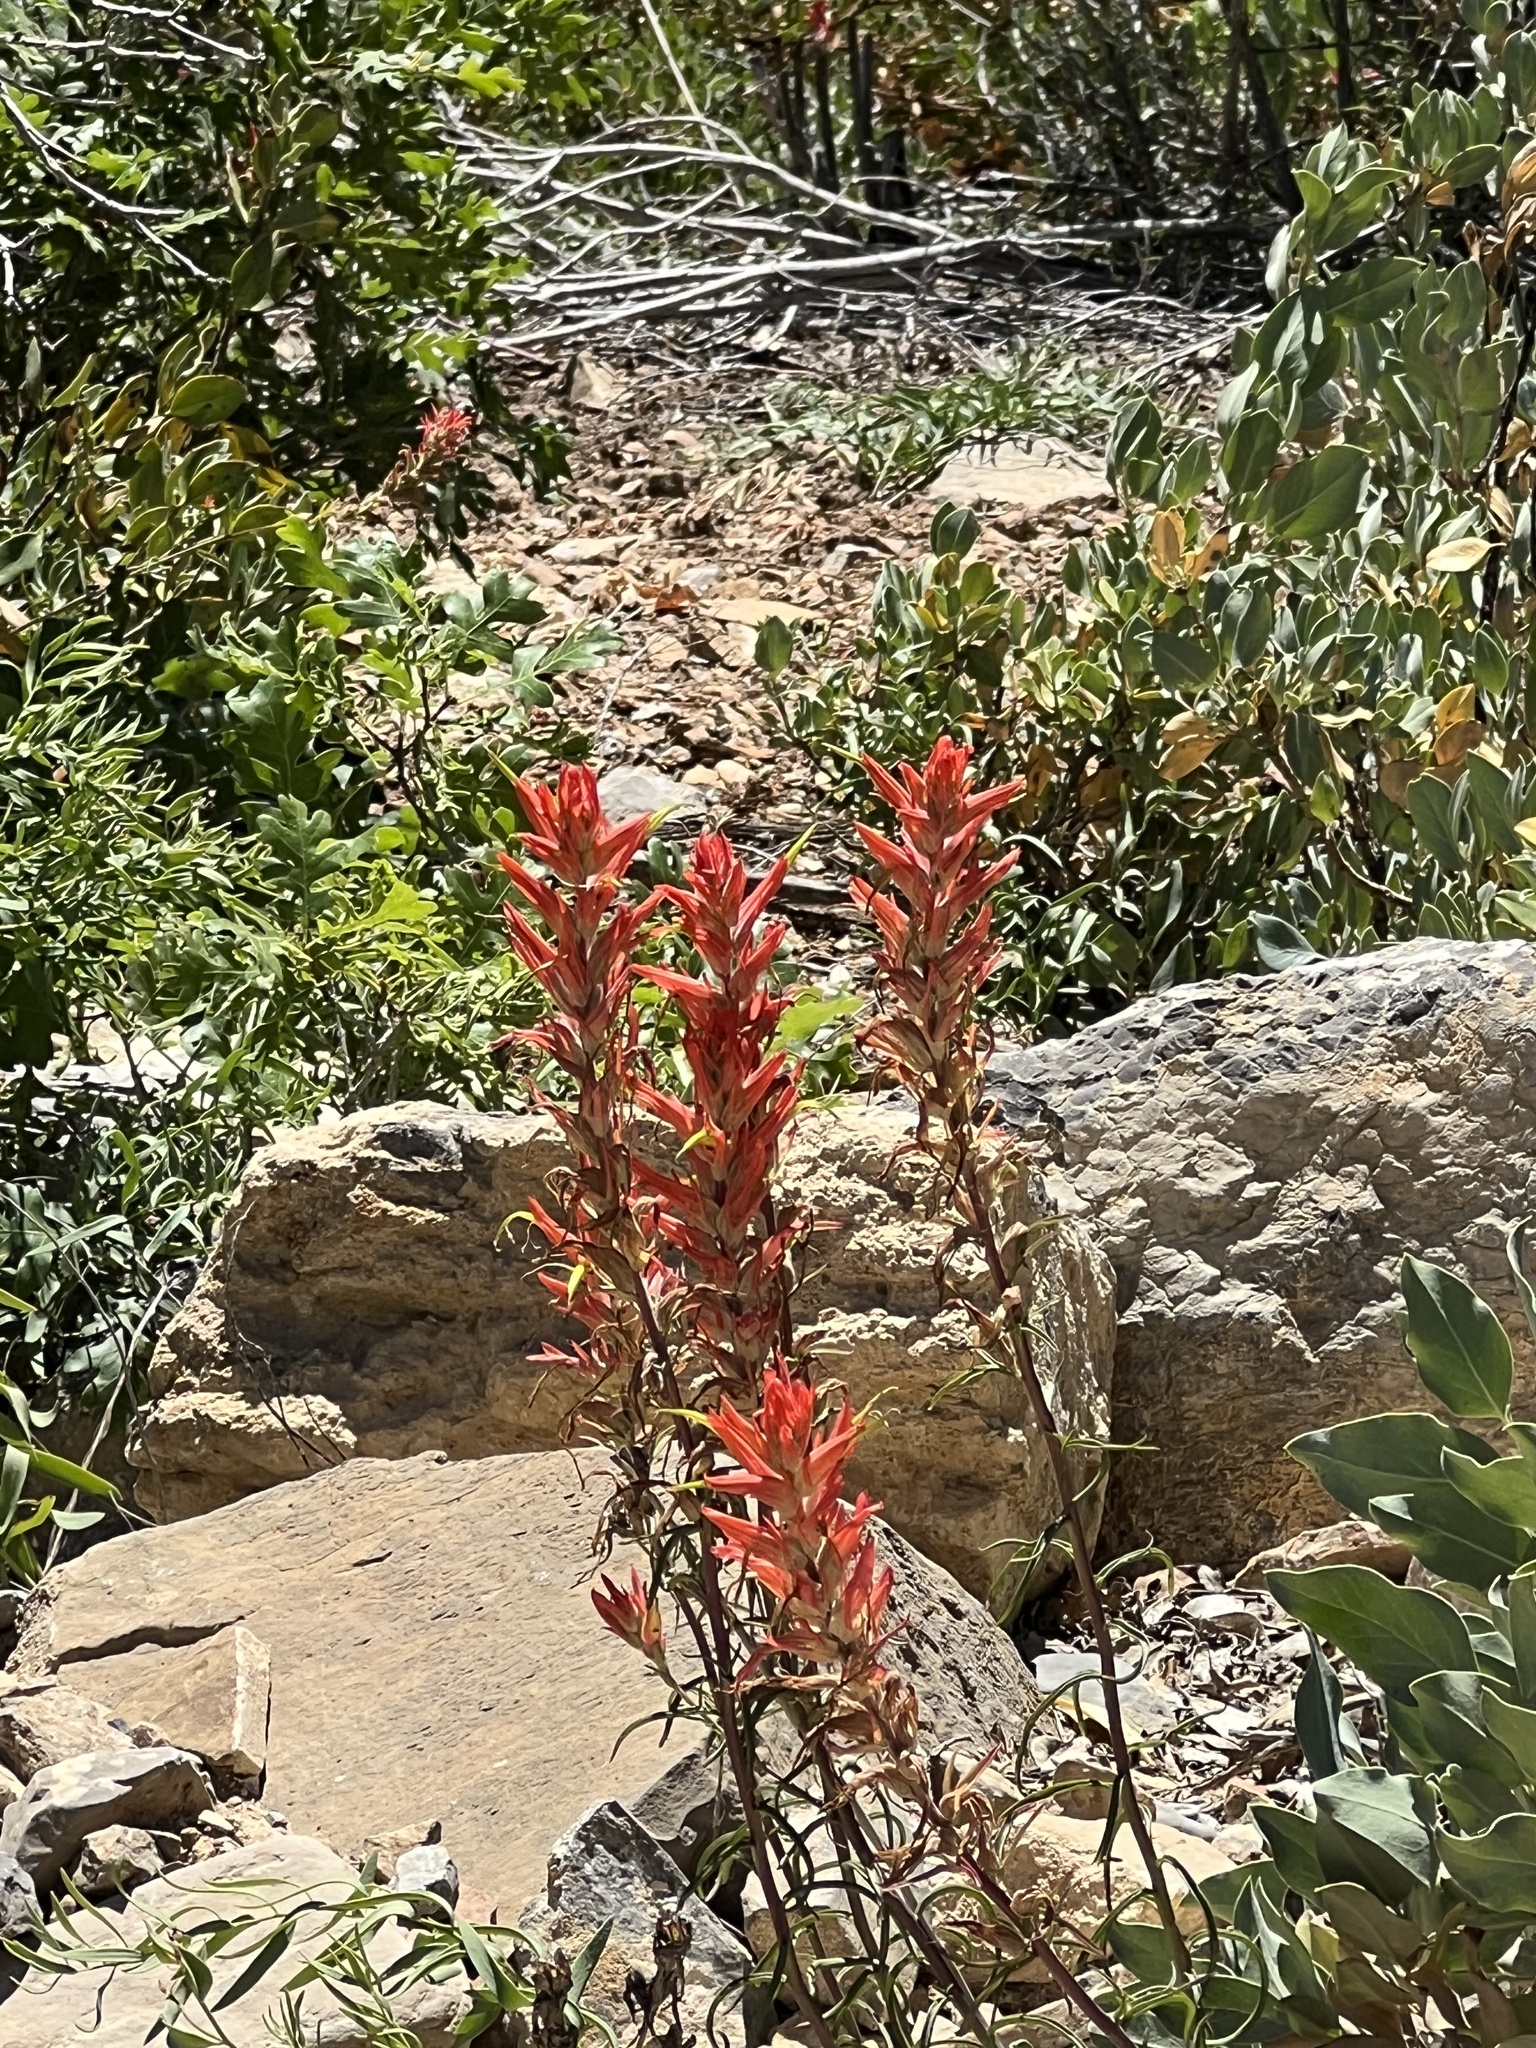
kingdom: Plantae
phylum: Tracheophyta
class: Magnoliopsida
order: Lamiales
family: Orobanchaceae
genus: Castilleja
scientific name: Castilleja linariifolia
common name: Wyoming paintbrush
